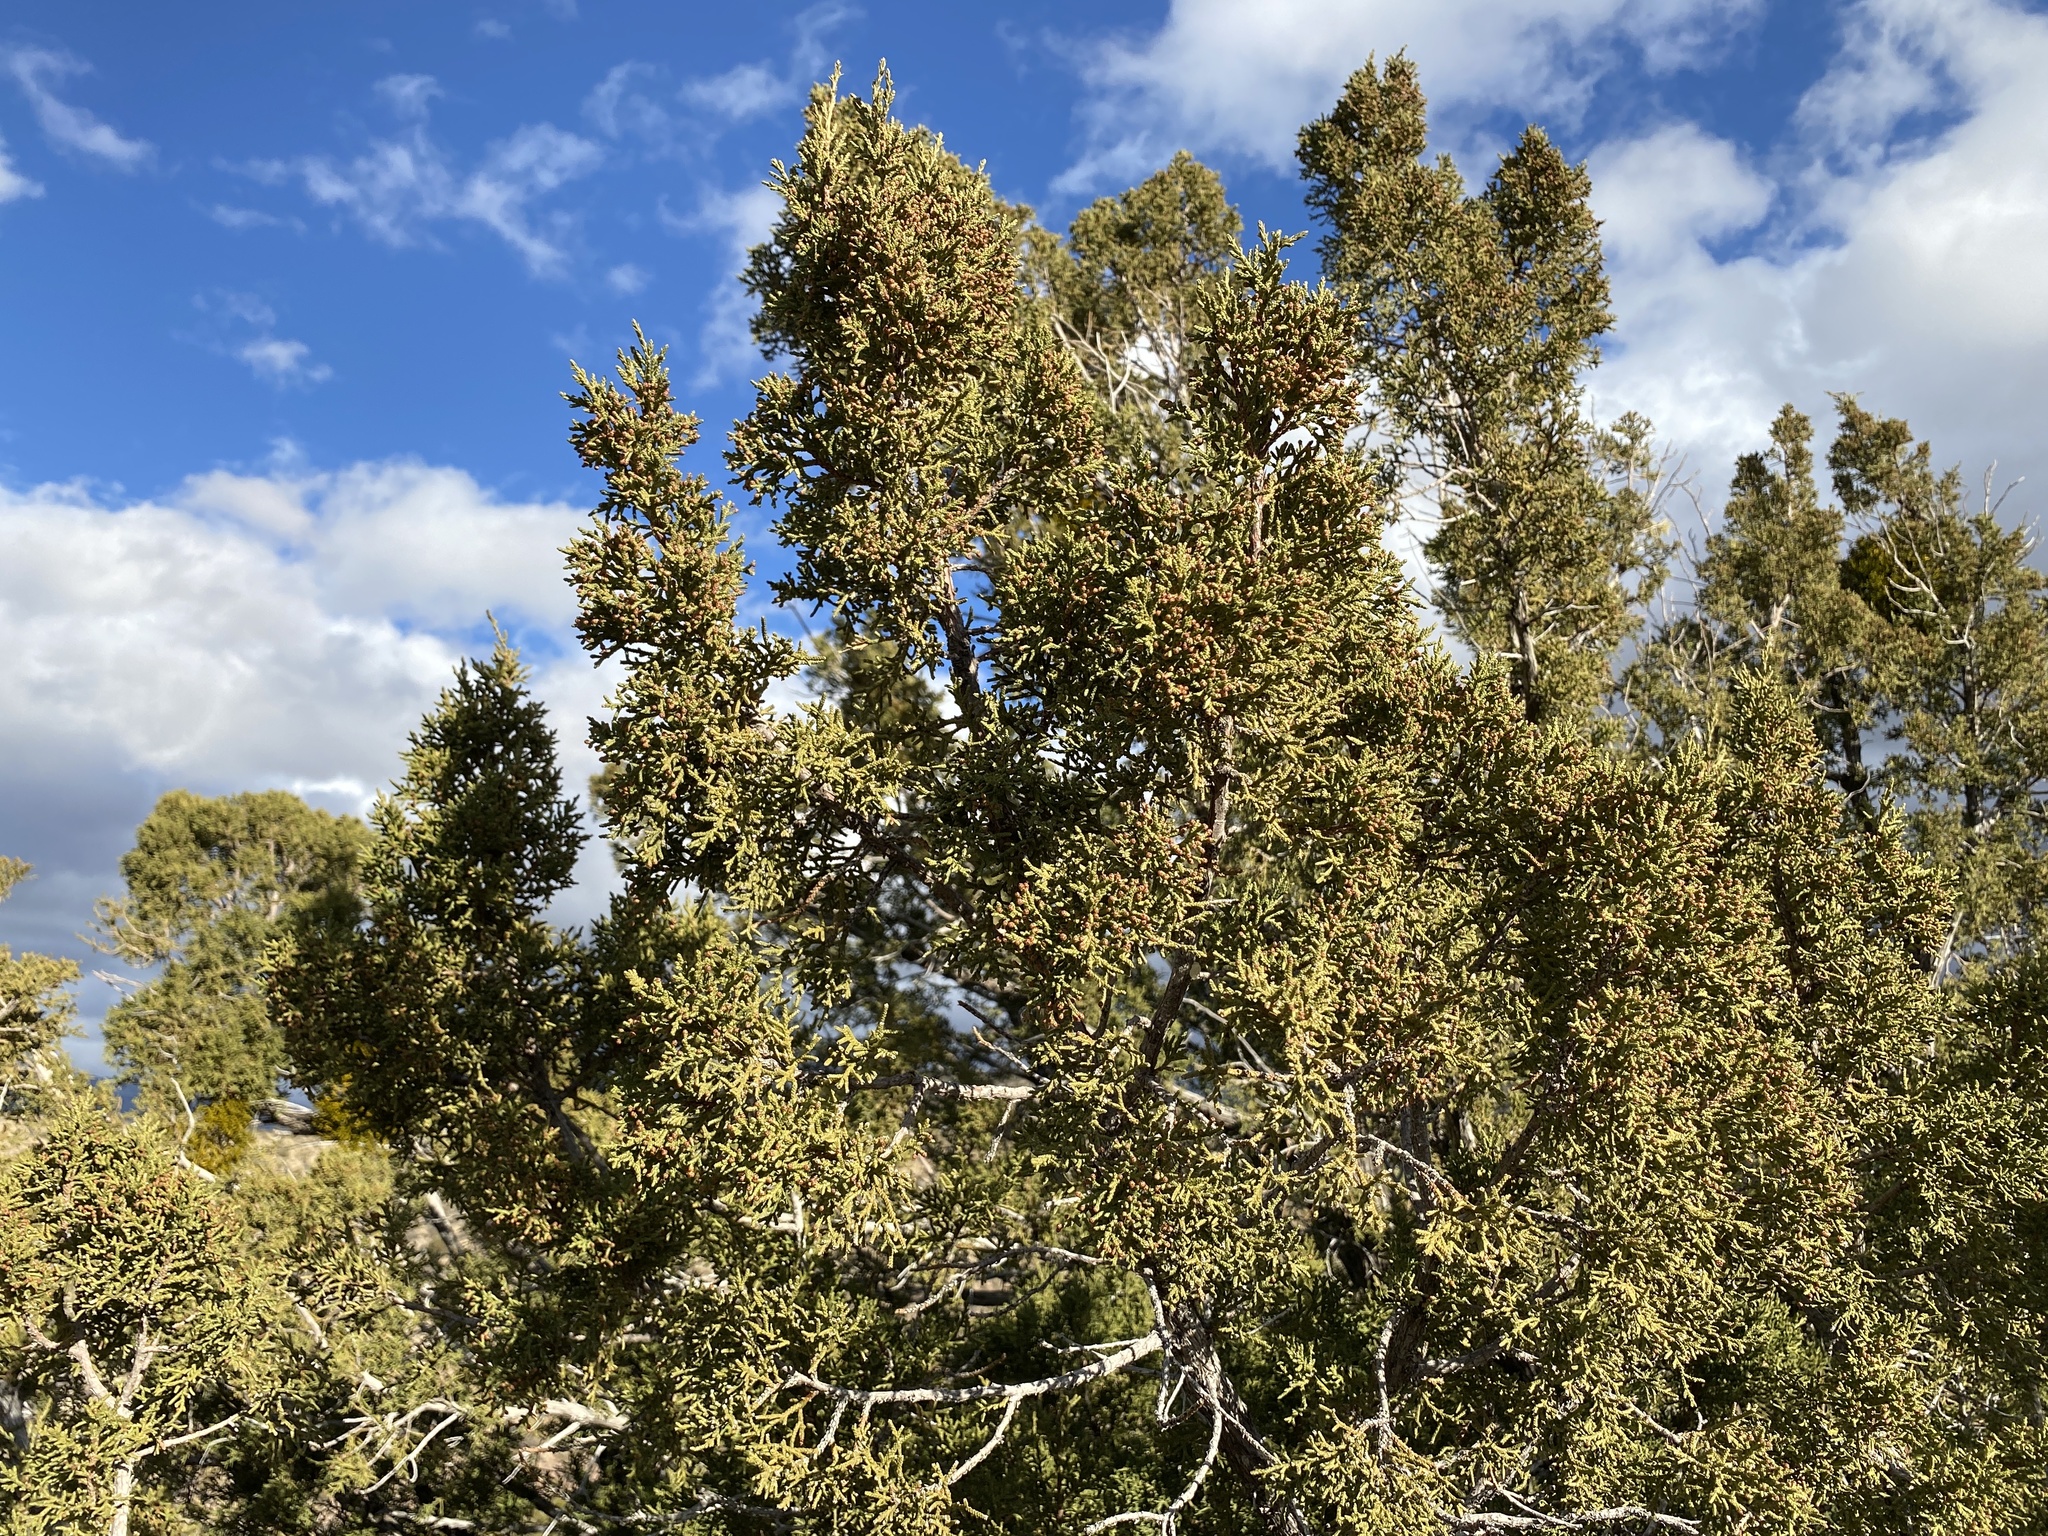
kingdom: Plantae
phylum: Tracheophyta
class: Pinopsida
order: Pinales
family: Cupressaceae
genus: Juniperus
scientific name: Juniperus monosperma
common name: One-seed juniper
